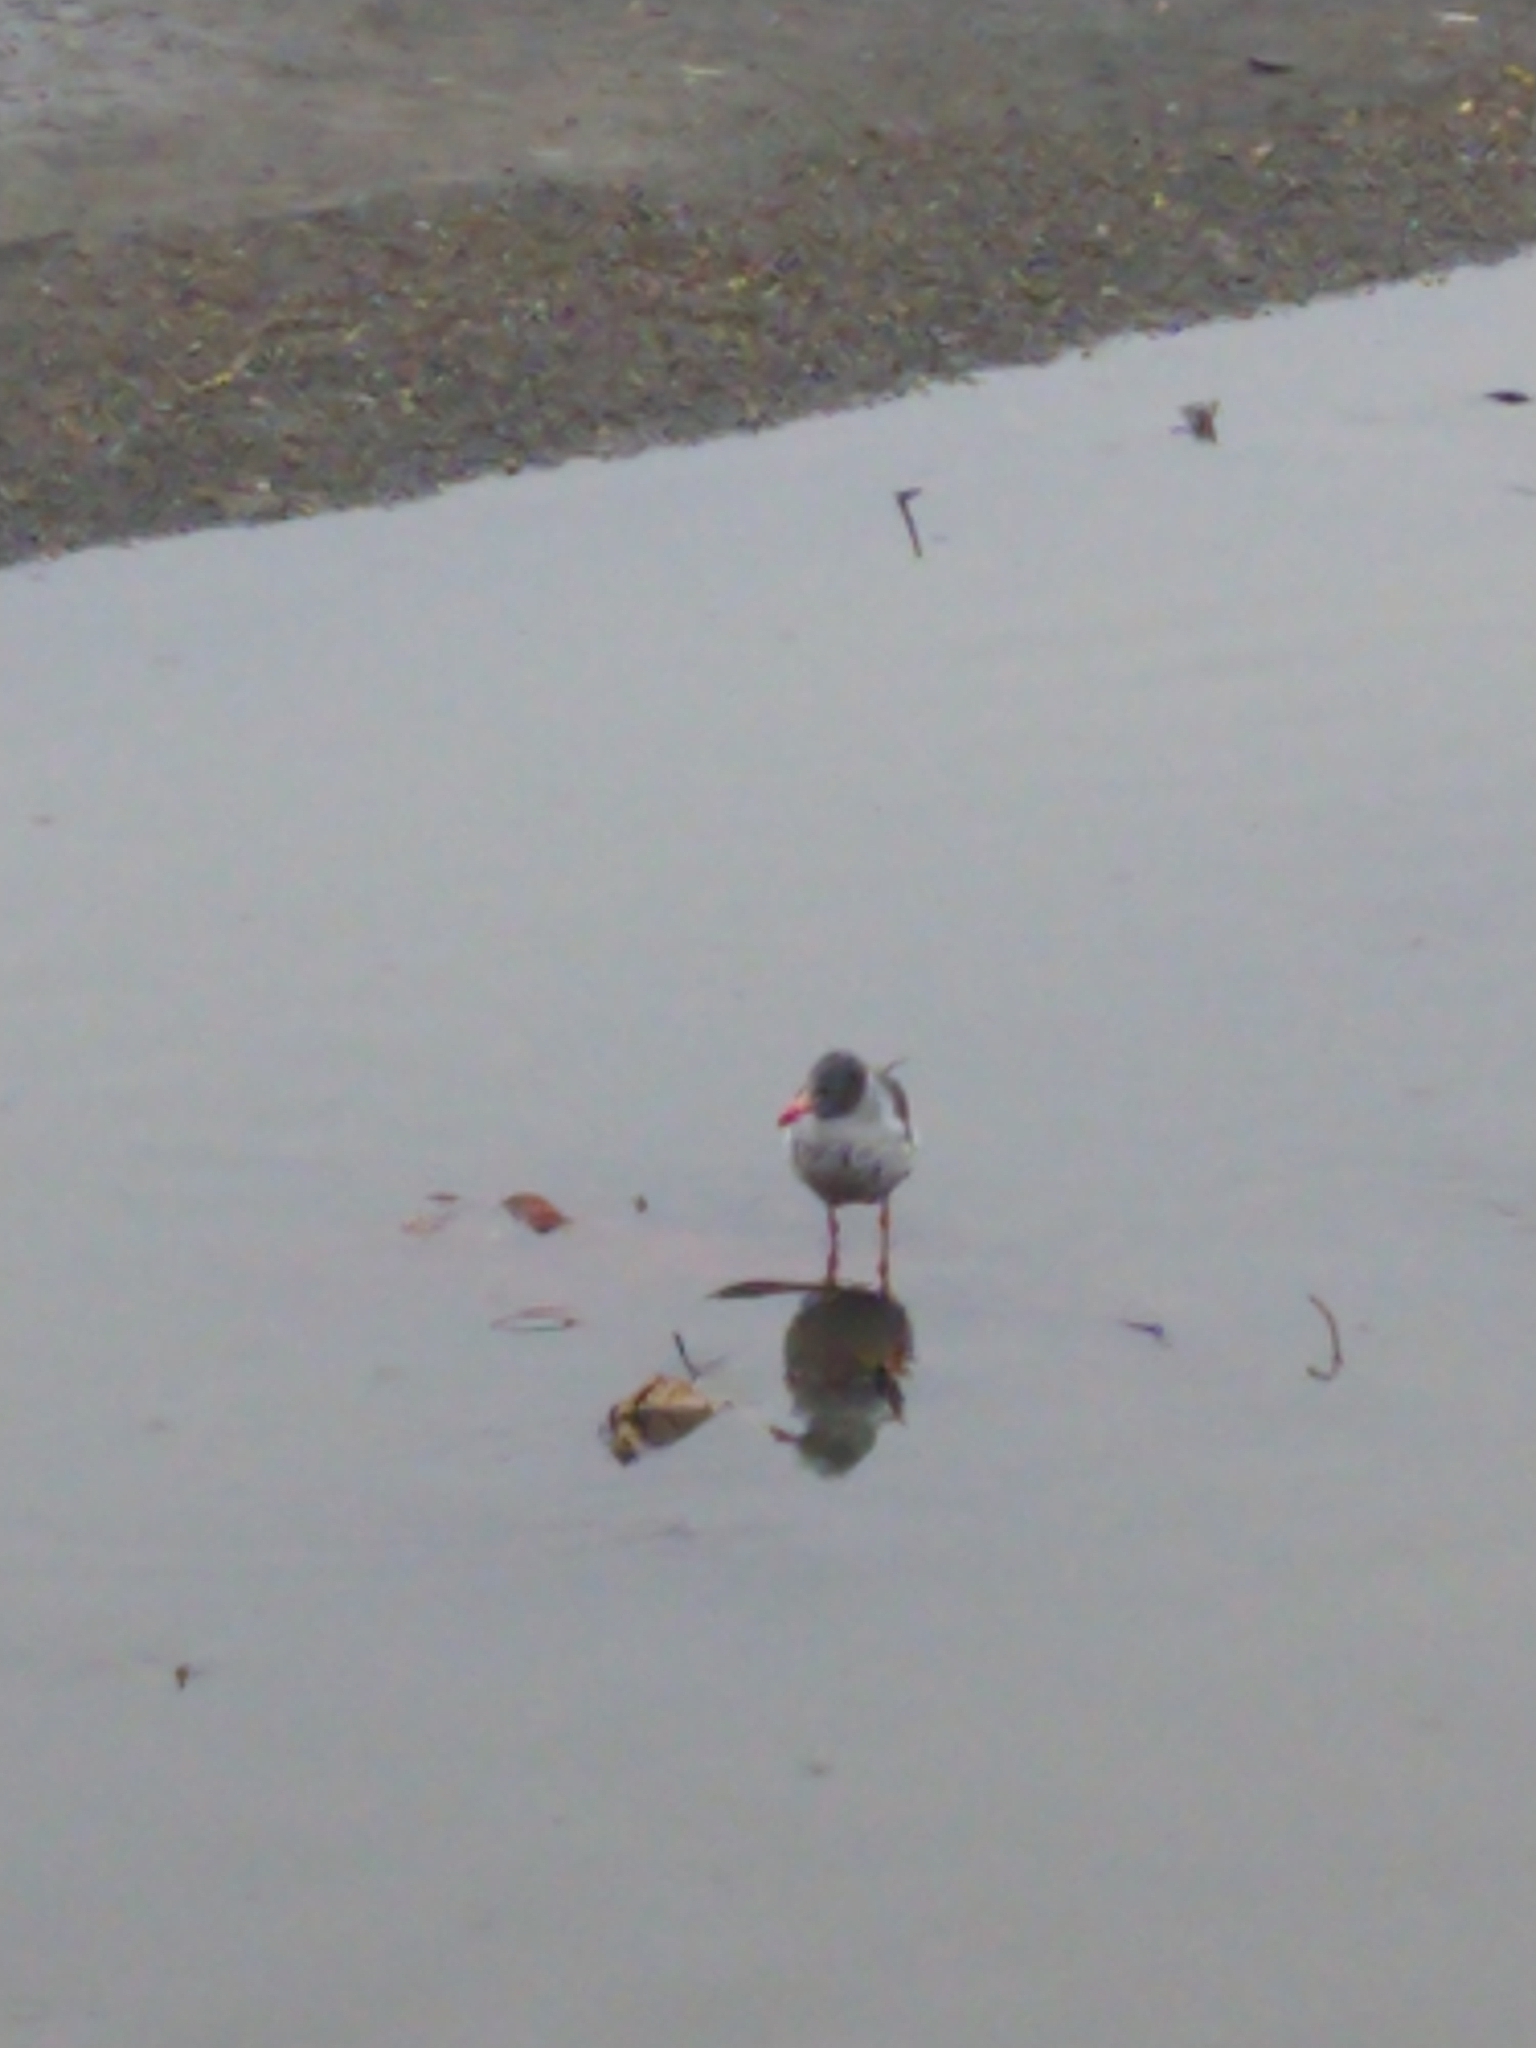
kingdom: Animalia
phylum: Chordata
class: Aves
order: Charadriiformes
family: Laridae
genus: Leucophaeus
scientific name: Leucophaeus scoresbii
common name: Dolphin gull
